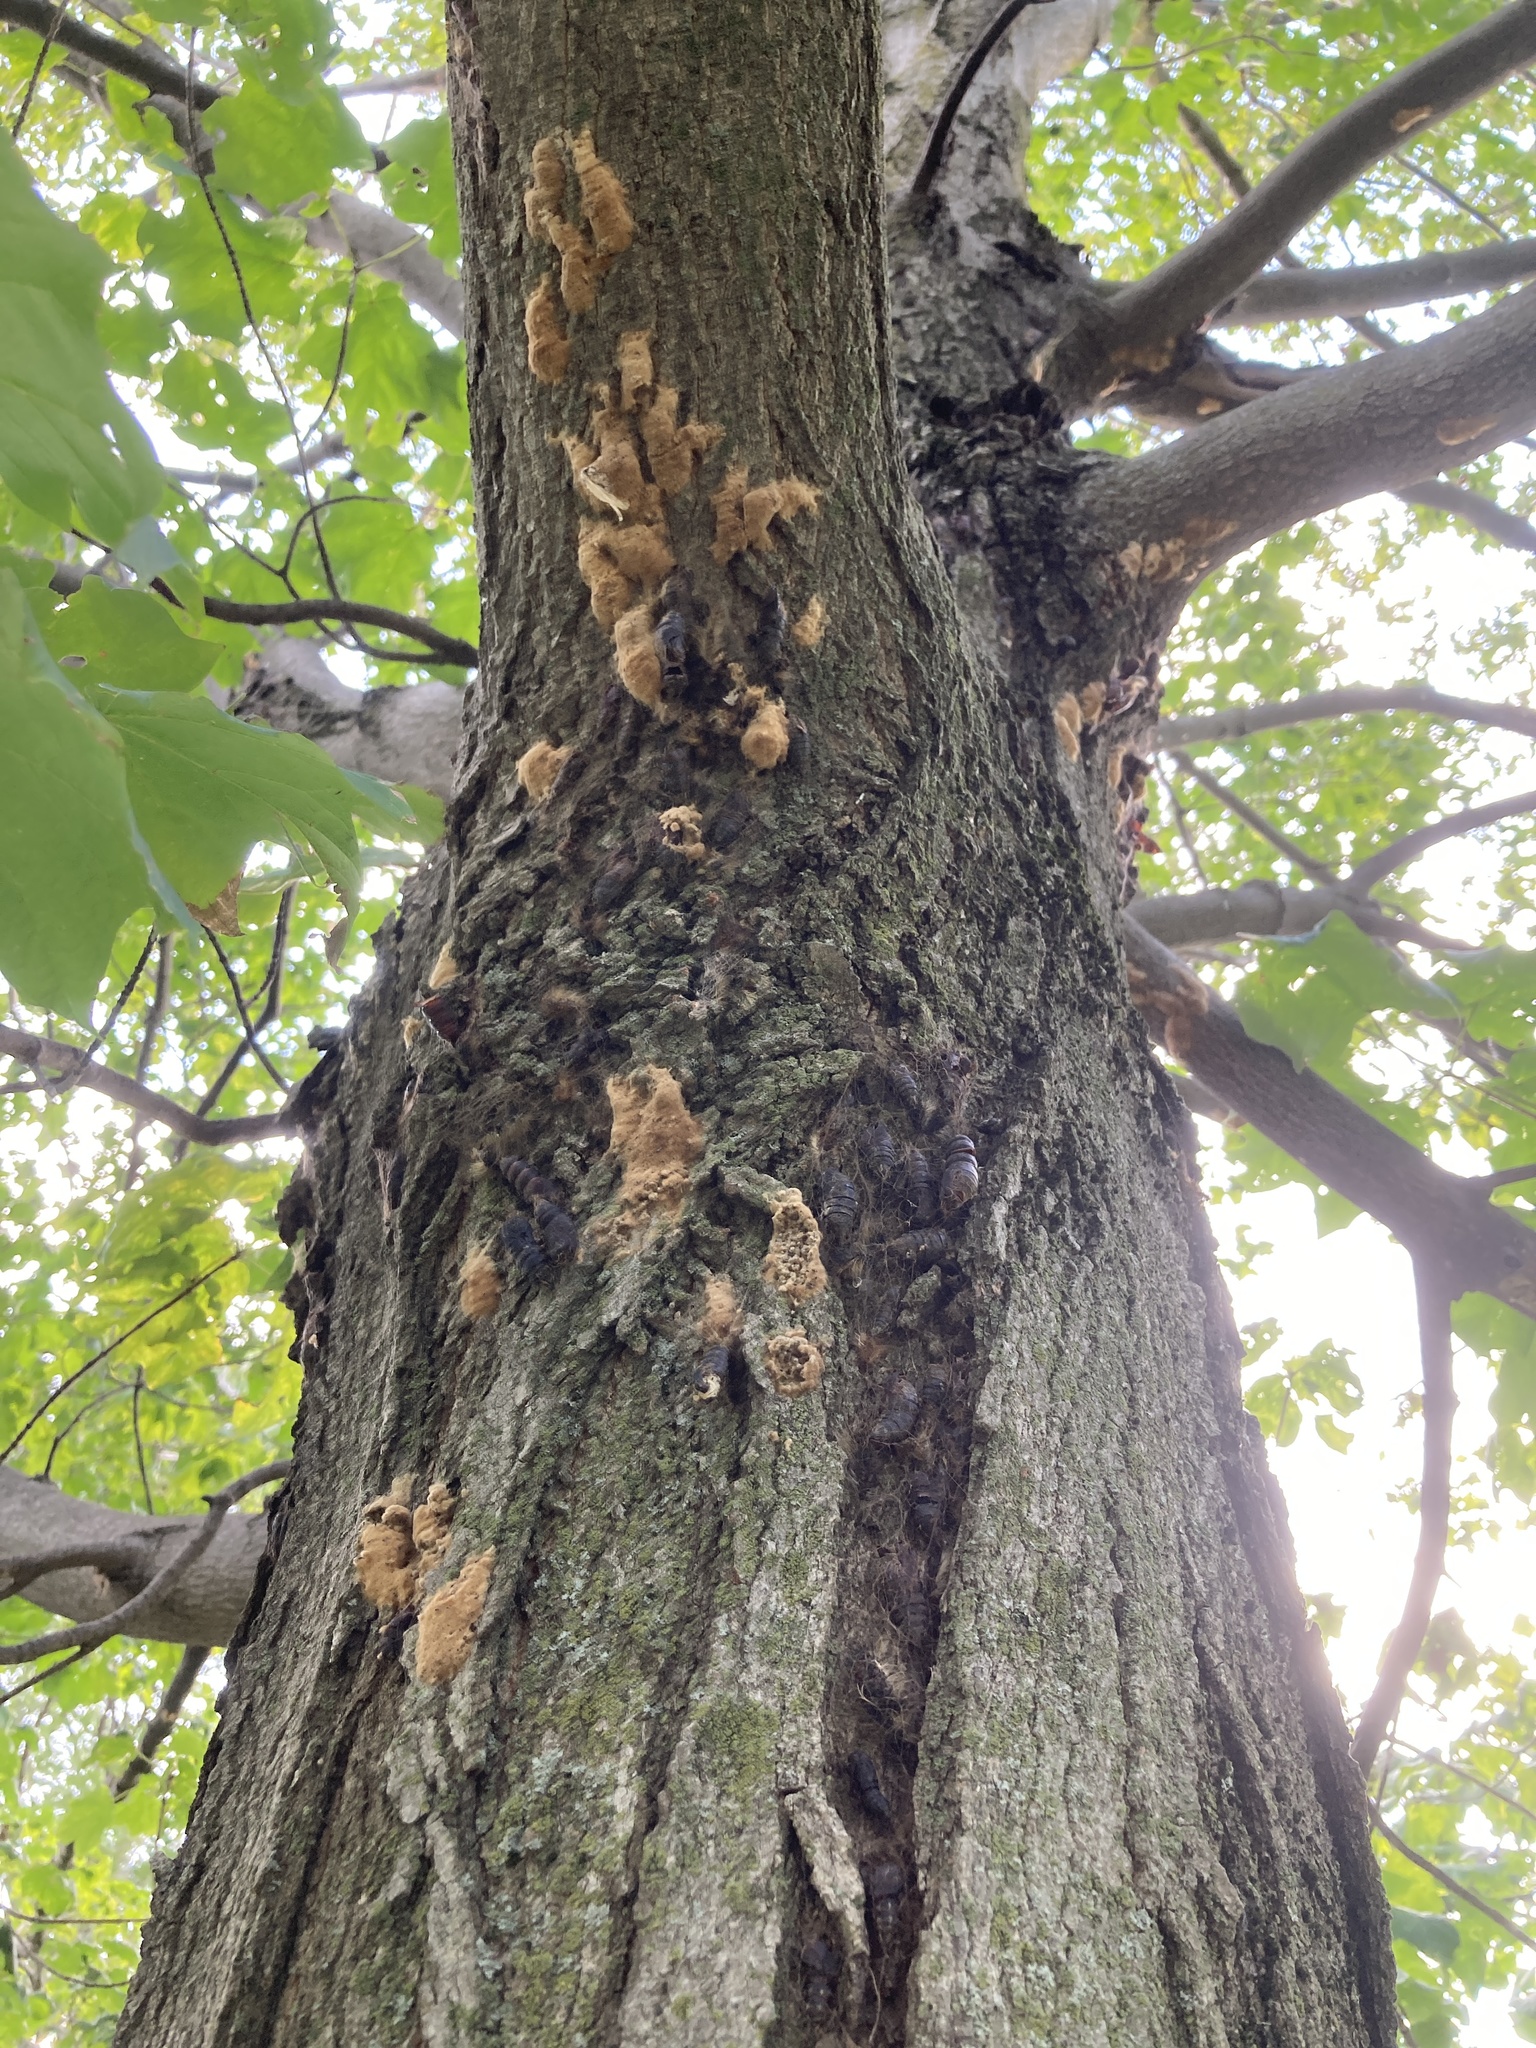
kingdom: Animalia
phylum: Arthropoda
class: Insecta
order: Lepidoptera
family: Erebidae
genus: Lymantria
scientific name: Lymantria dispar
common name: Gypsy moth
